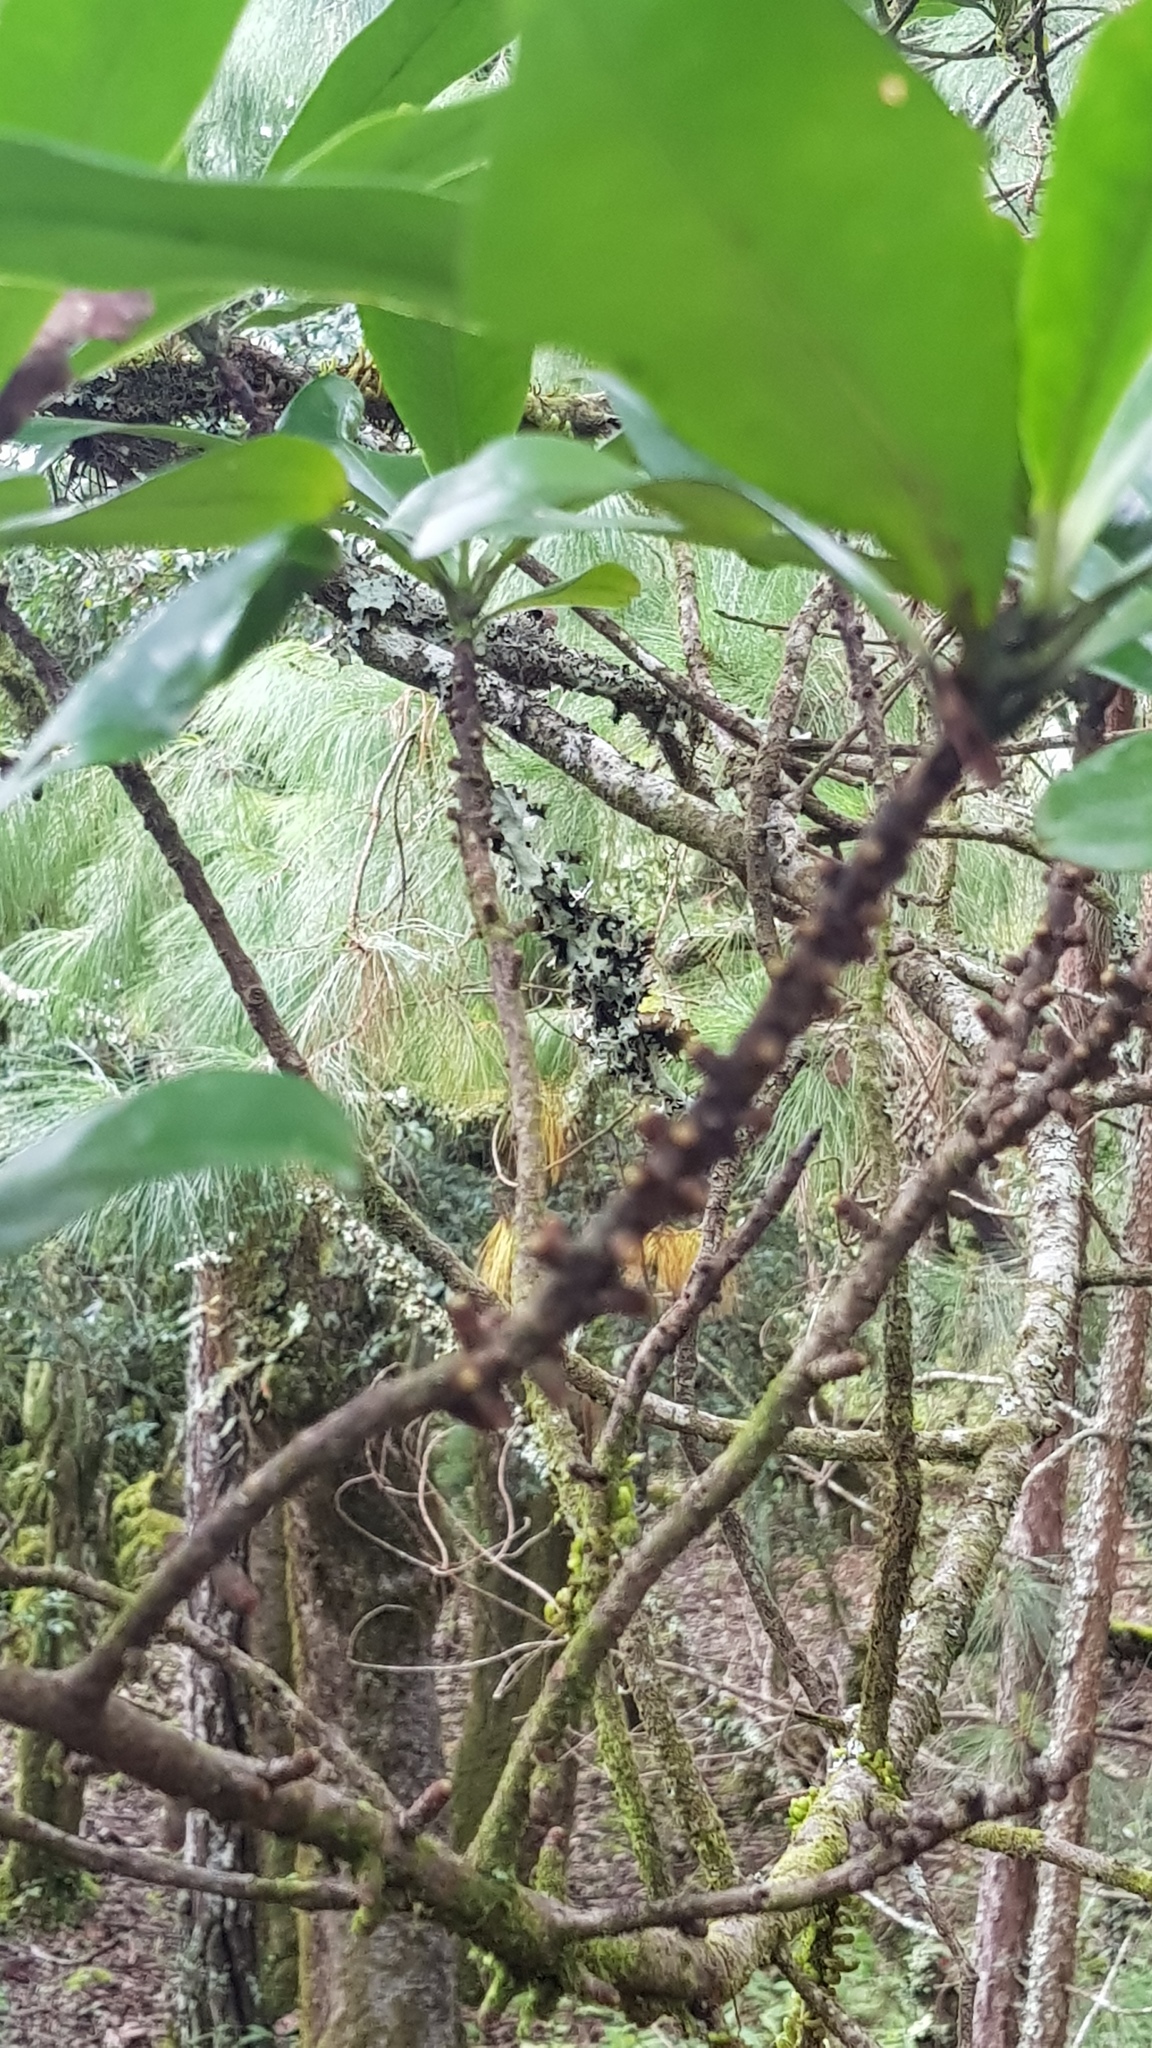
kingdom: Plantae
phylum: Tracheophyta
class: Magnoliopsida
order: Ericales
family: Primulaceae
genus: Myrsine
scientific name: Myrsine juergensenii
